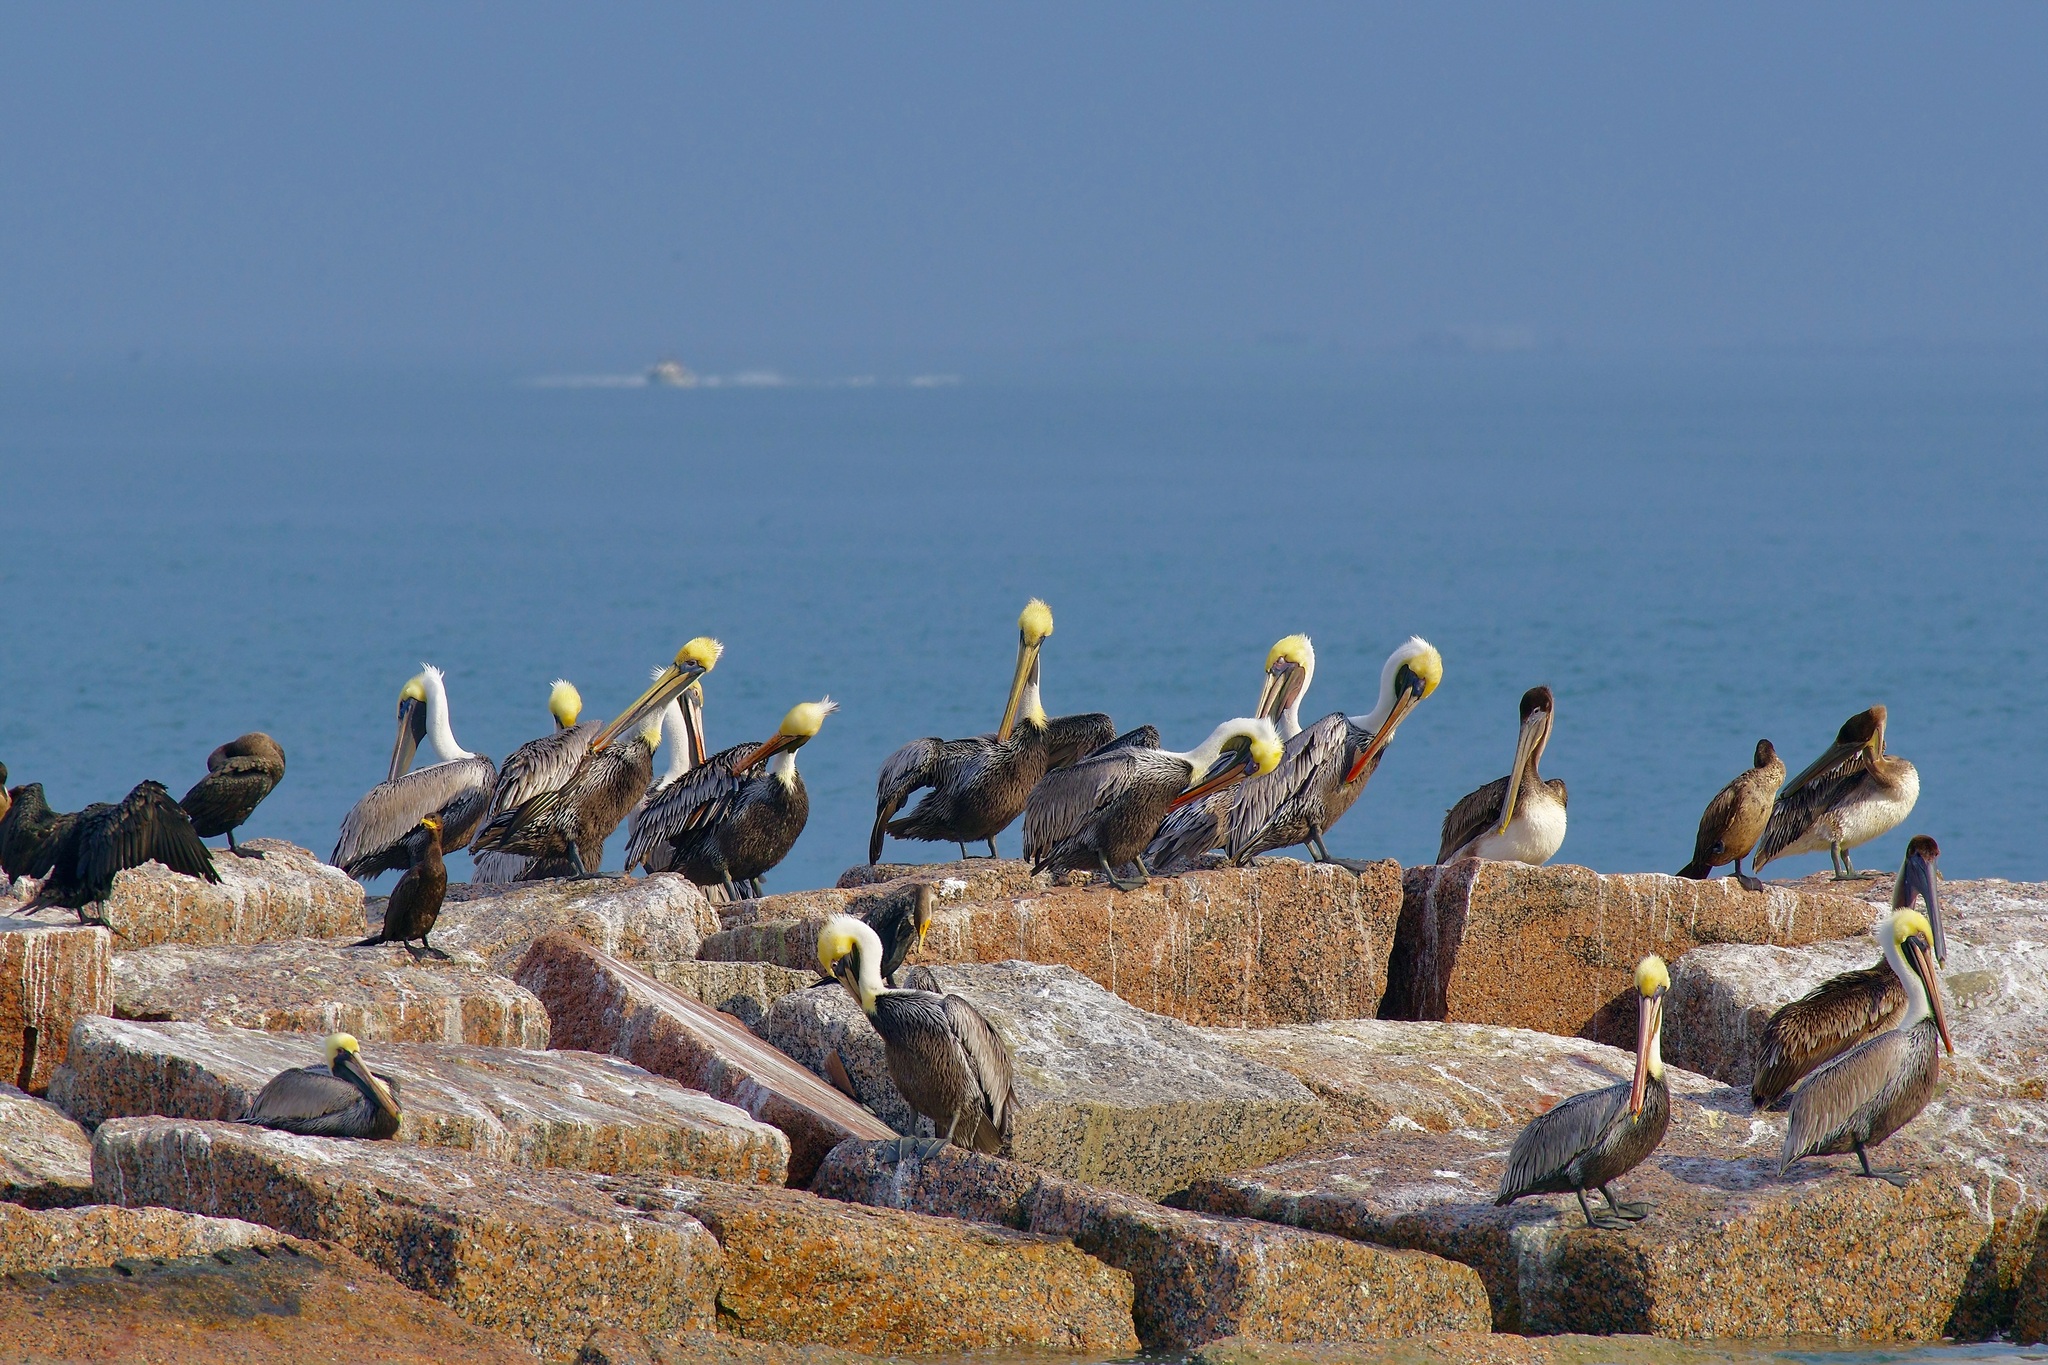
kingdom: Animalia
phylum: Chordata
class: Aves
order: Pelecaniformes
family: Pelecanidae
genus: Pelecanus
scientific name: Pelecanus occidentalis
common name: Brown pelican
